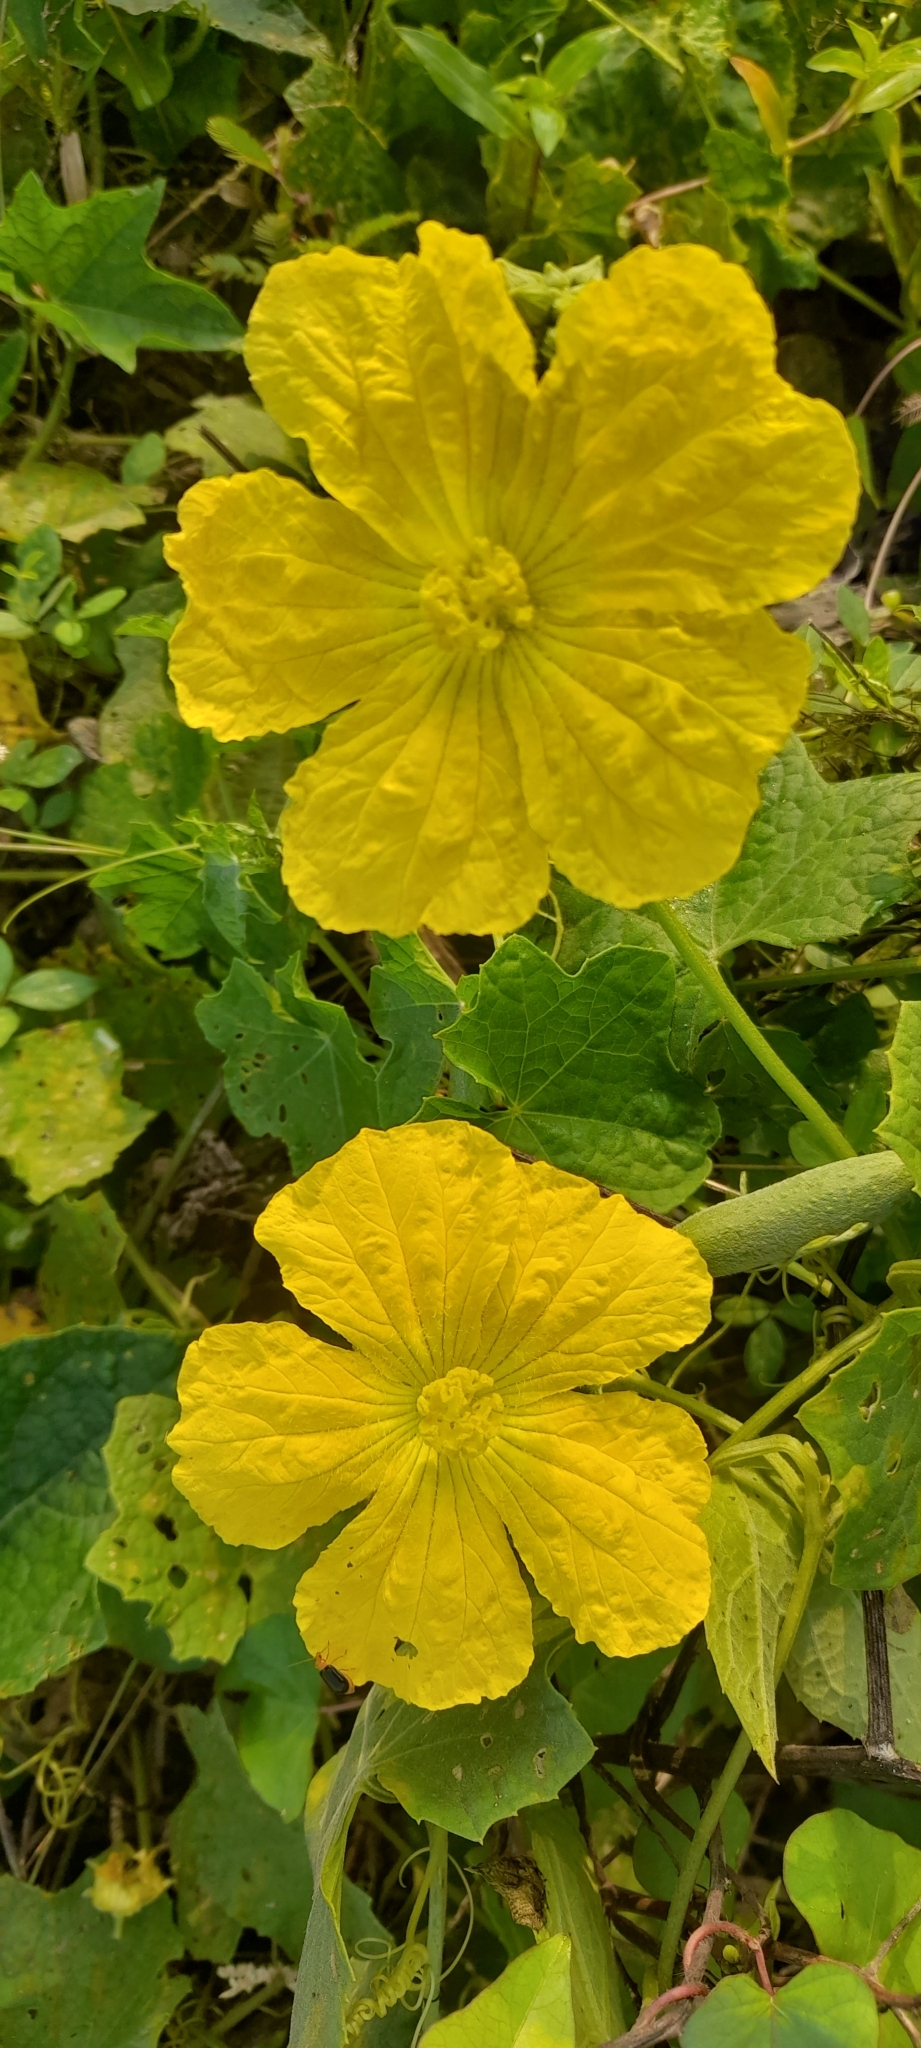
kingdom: Plantae
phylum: Tracheophyta
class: Magnoliopsida
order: Cucurbitales
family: Cucurbitaceae
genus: Luffa
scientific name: Luffa aegyptiaca
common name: Sponge gourd
